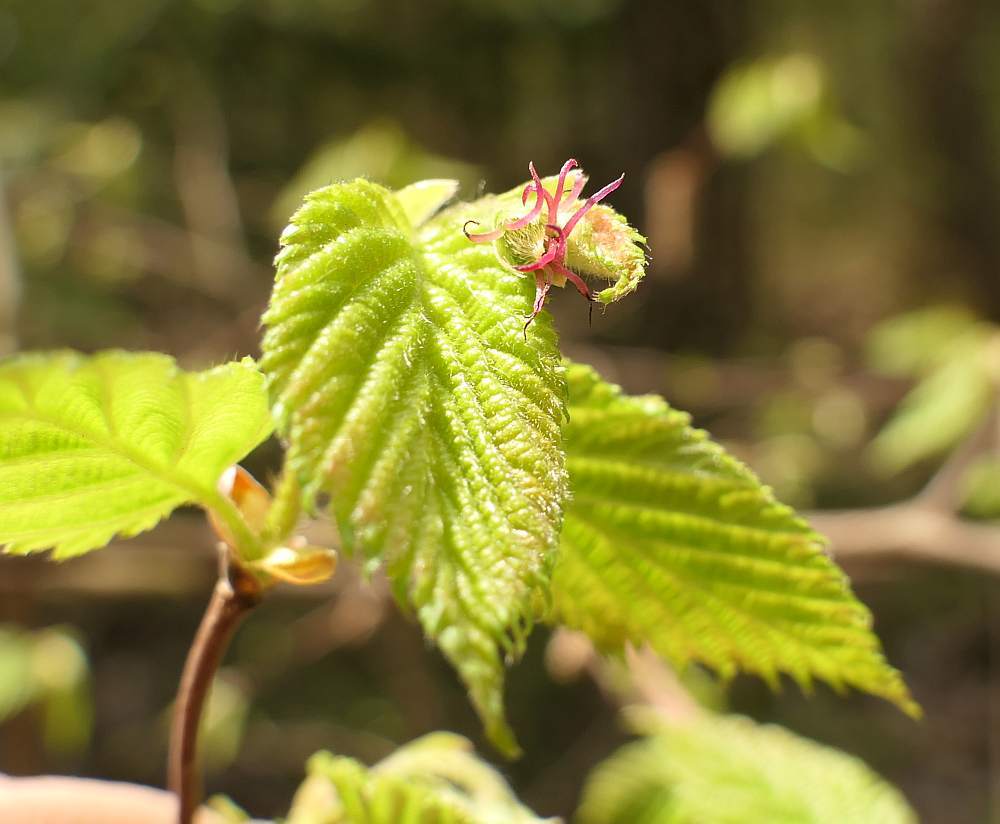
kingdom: Plantae
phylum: Tracheophyta
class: Magnoliopsida
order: Fagales
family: Betulaceae
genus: Corylus
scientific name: Corylus cornuta
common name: Beaked hazel
